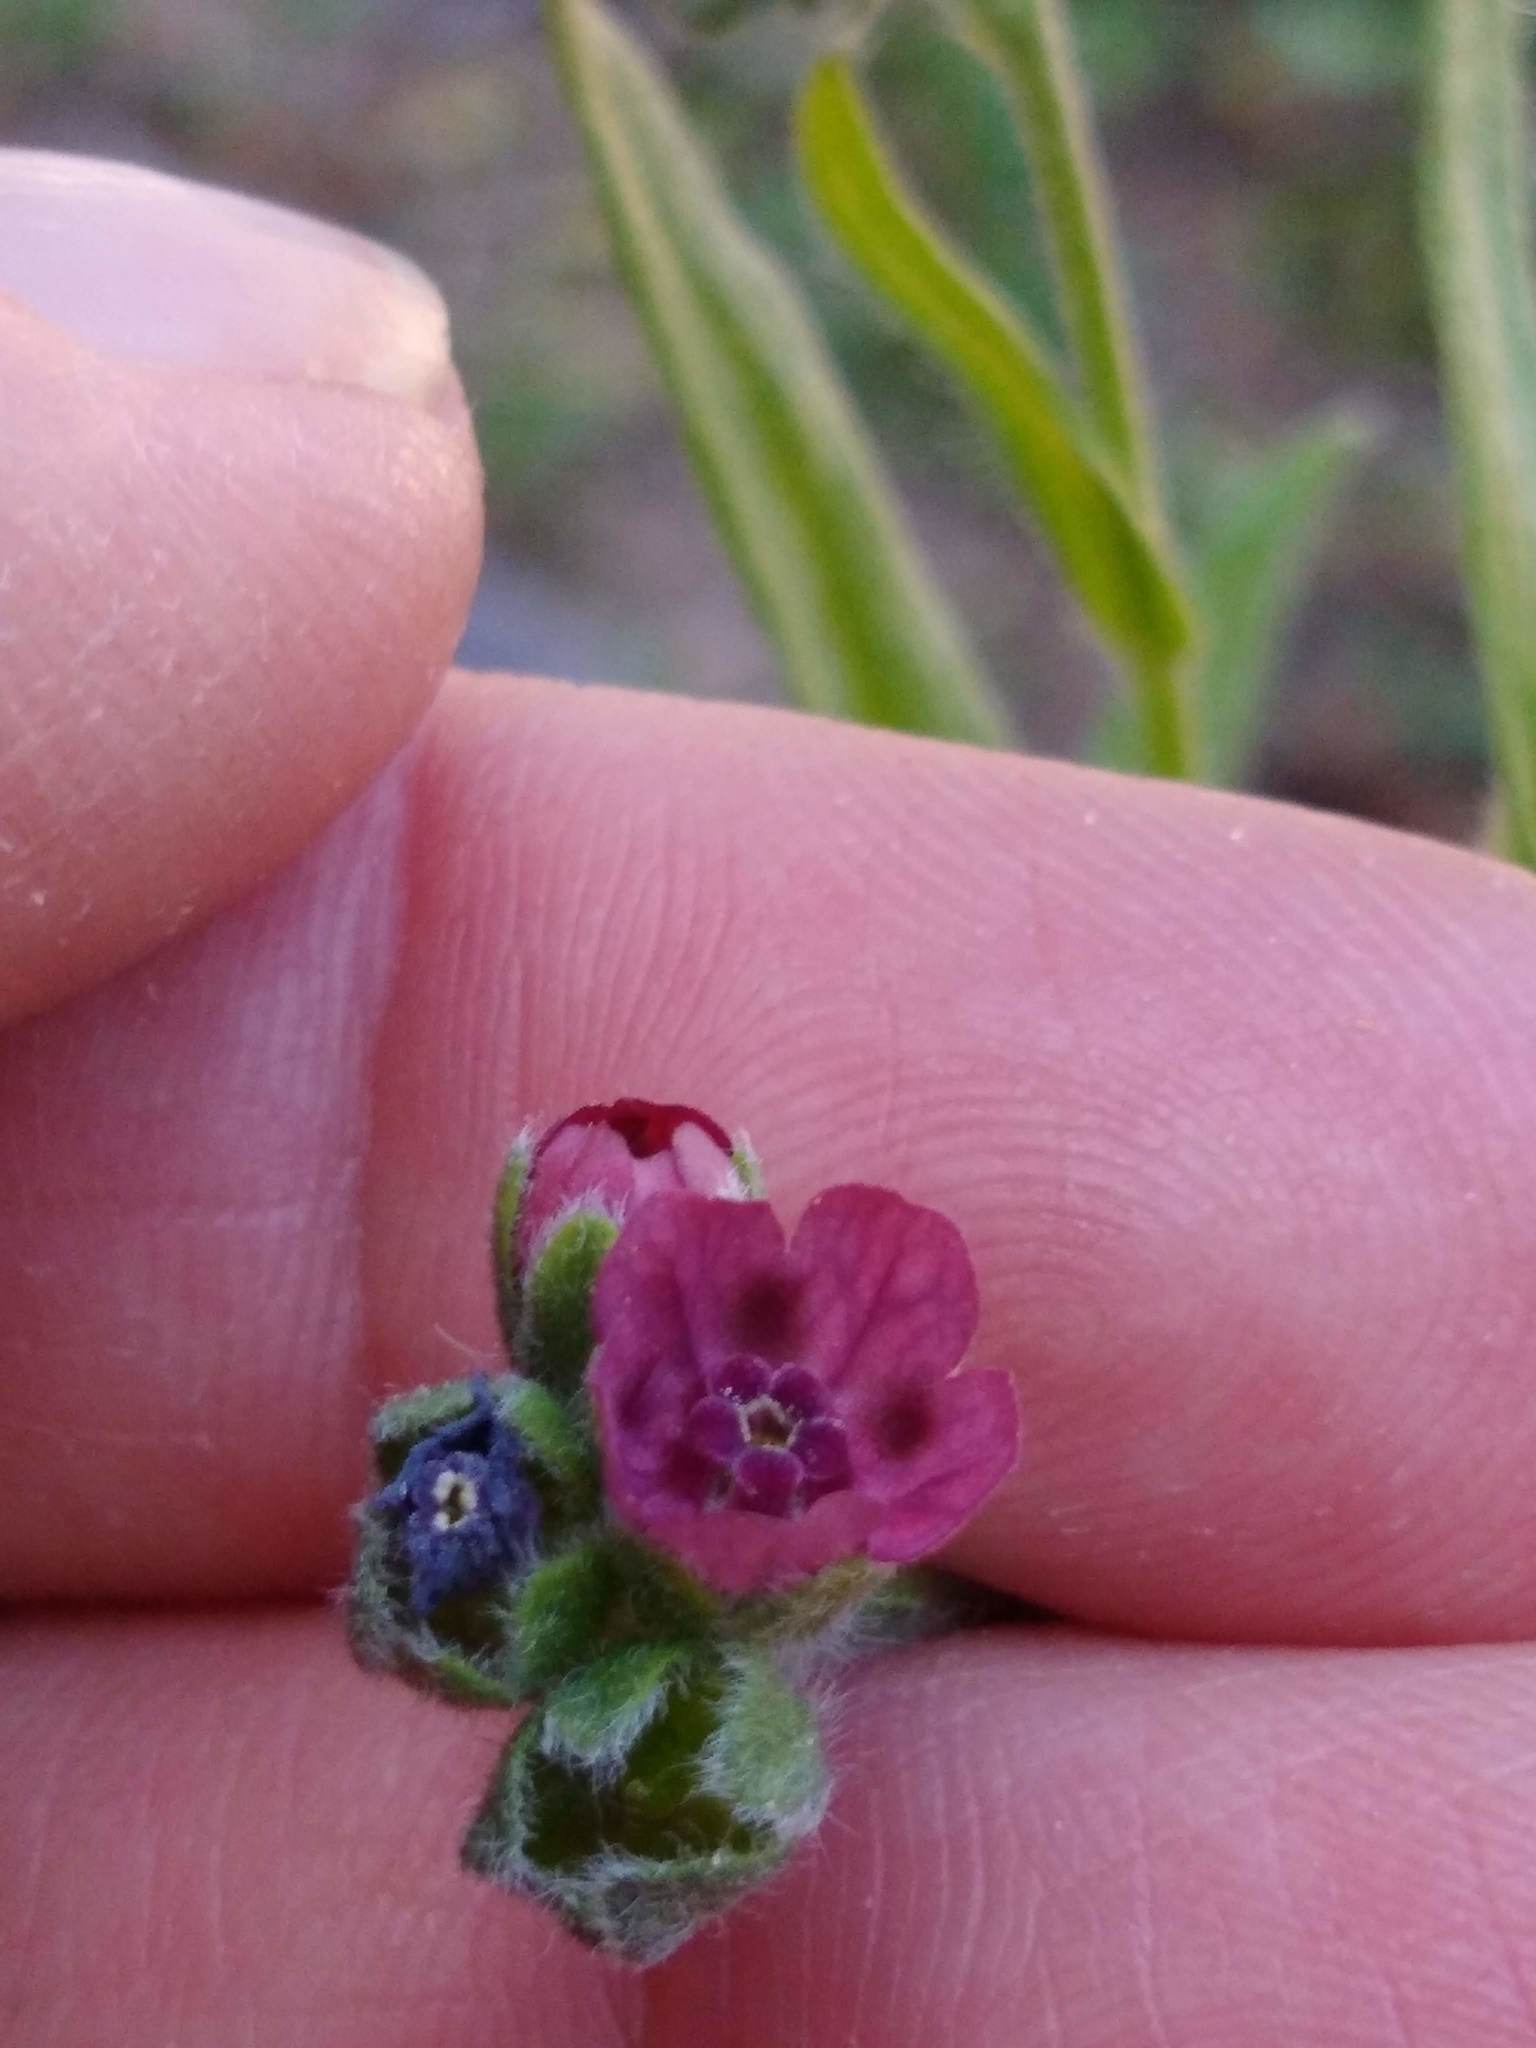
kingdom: Plantae
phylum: Tracheophyta
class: Magnoliopsida
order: Boraginales
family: Boraginaceae
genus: Cynoglossum
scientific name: Cynoglossum officinale
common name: Hound's-tongue
